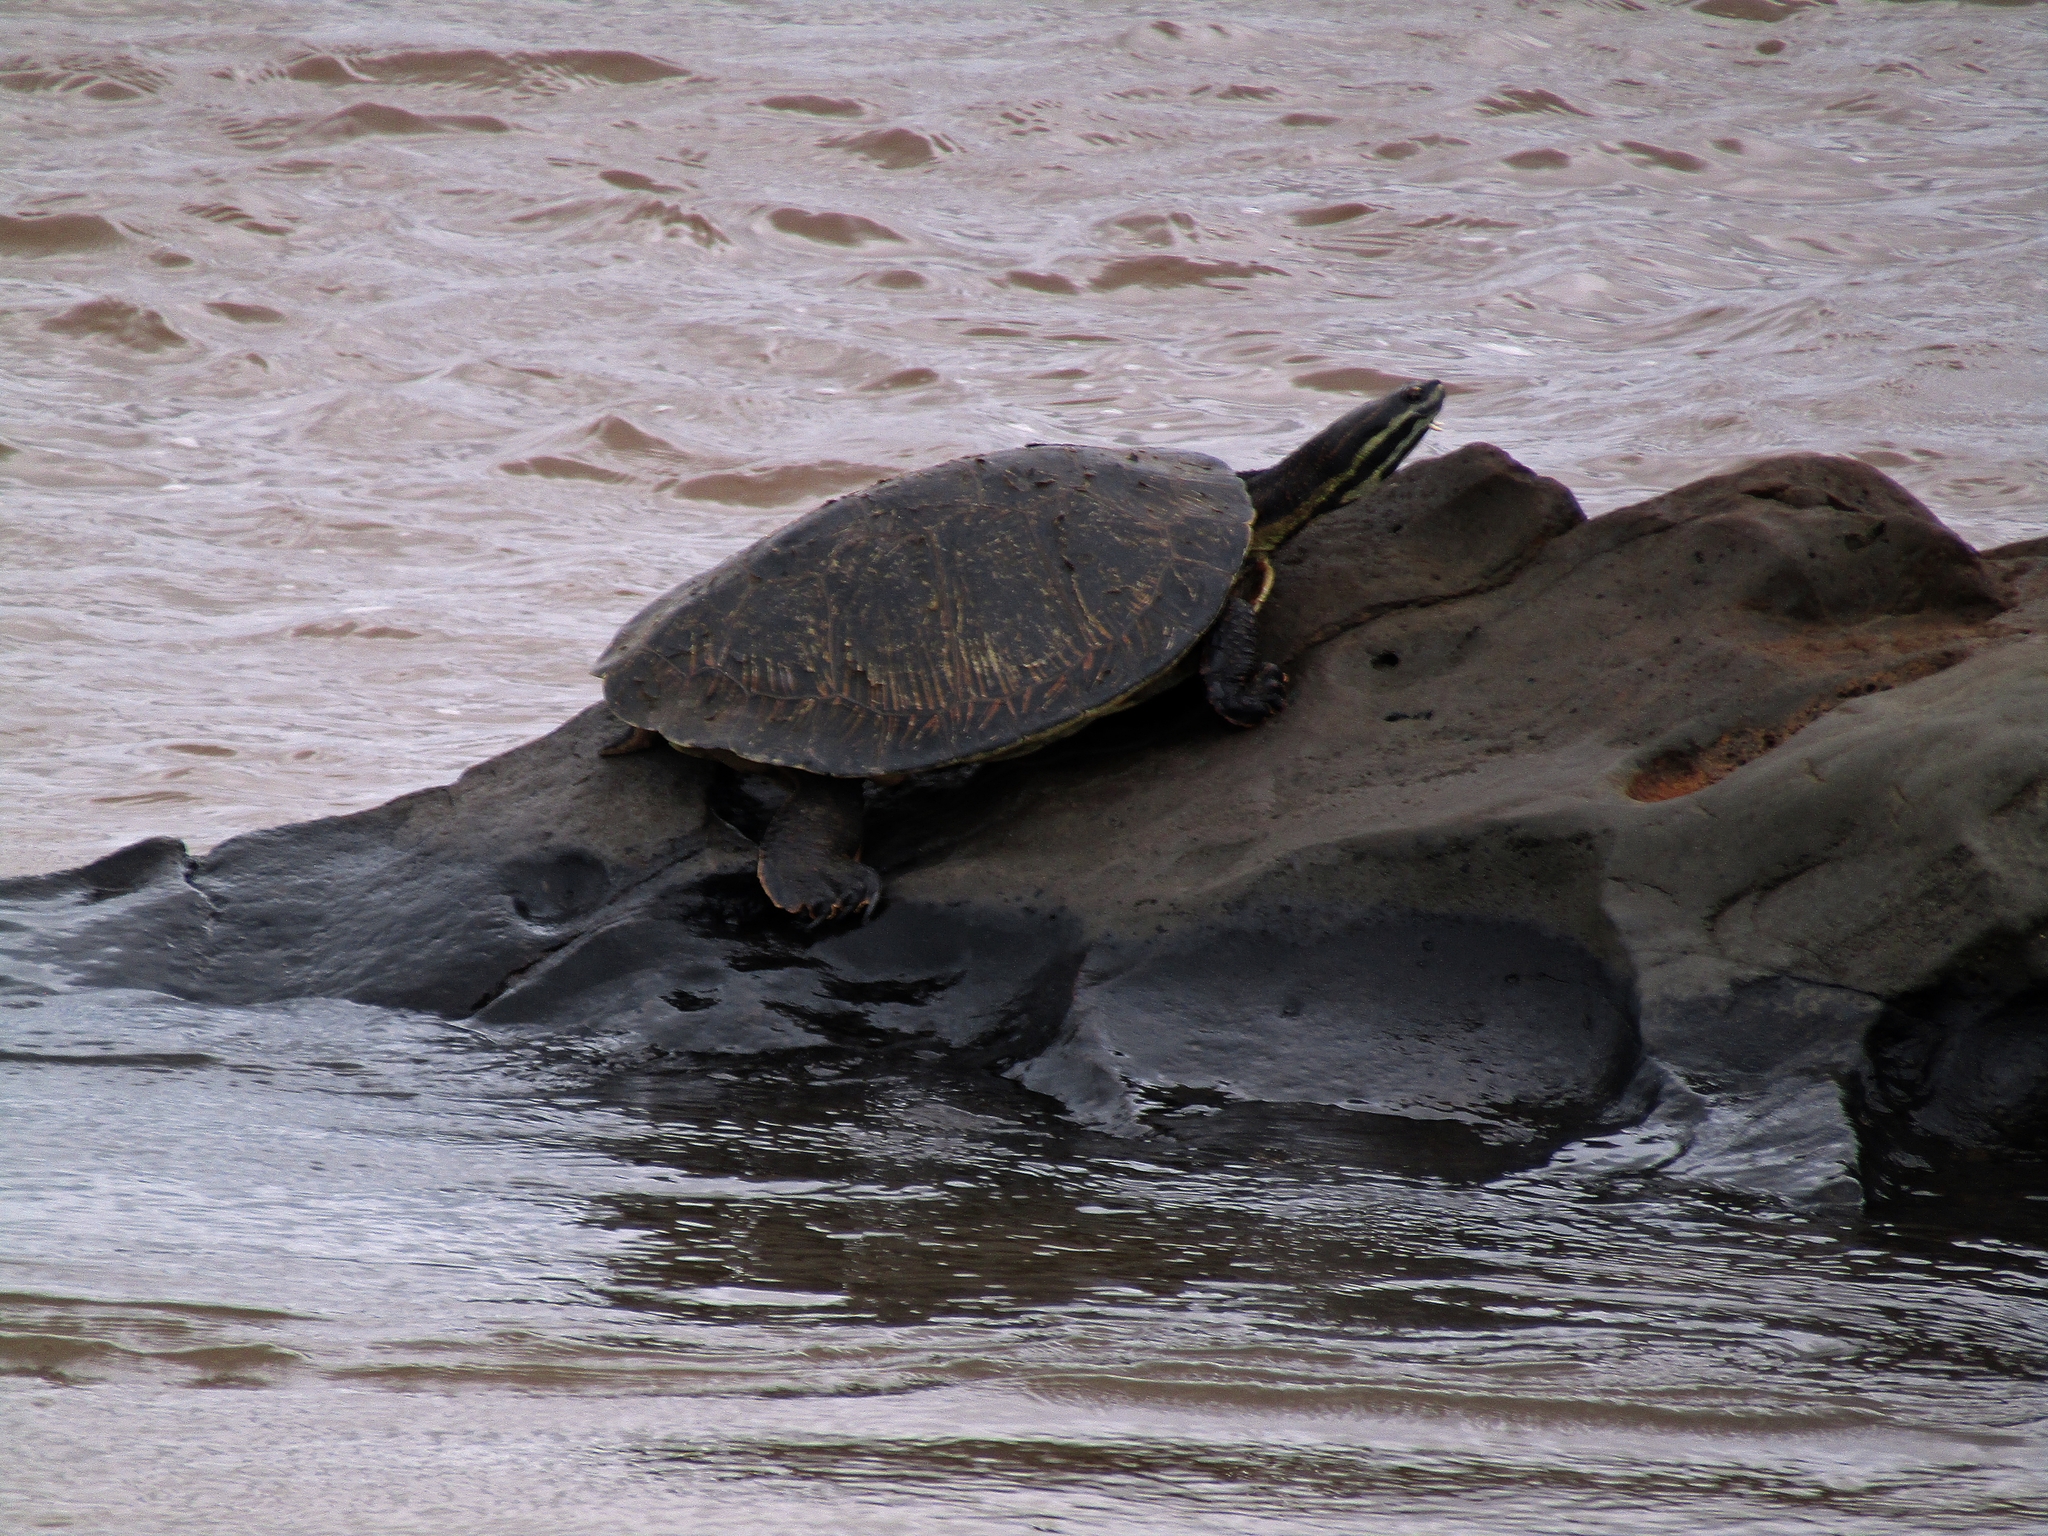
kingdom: Animalia
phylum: Chordata
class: Testudines
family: Chelidae
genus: Phrynops
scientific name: Phrynops williamsi
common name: Williams side-necked turtle
